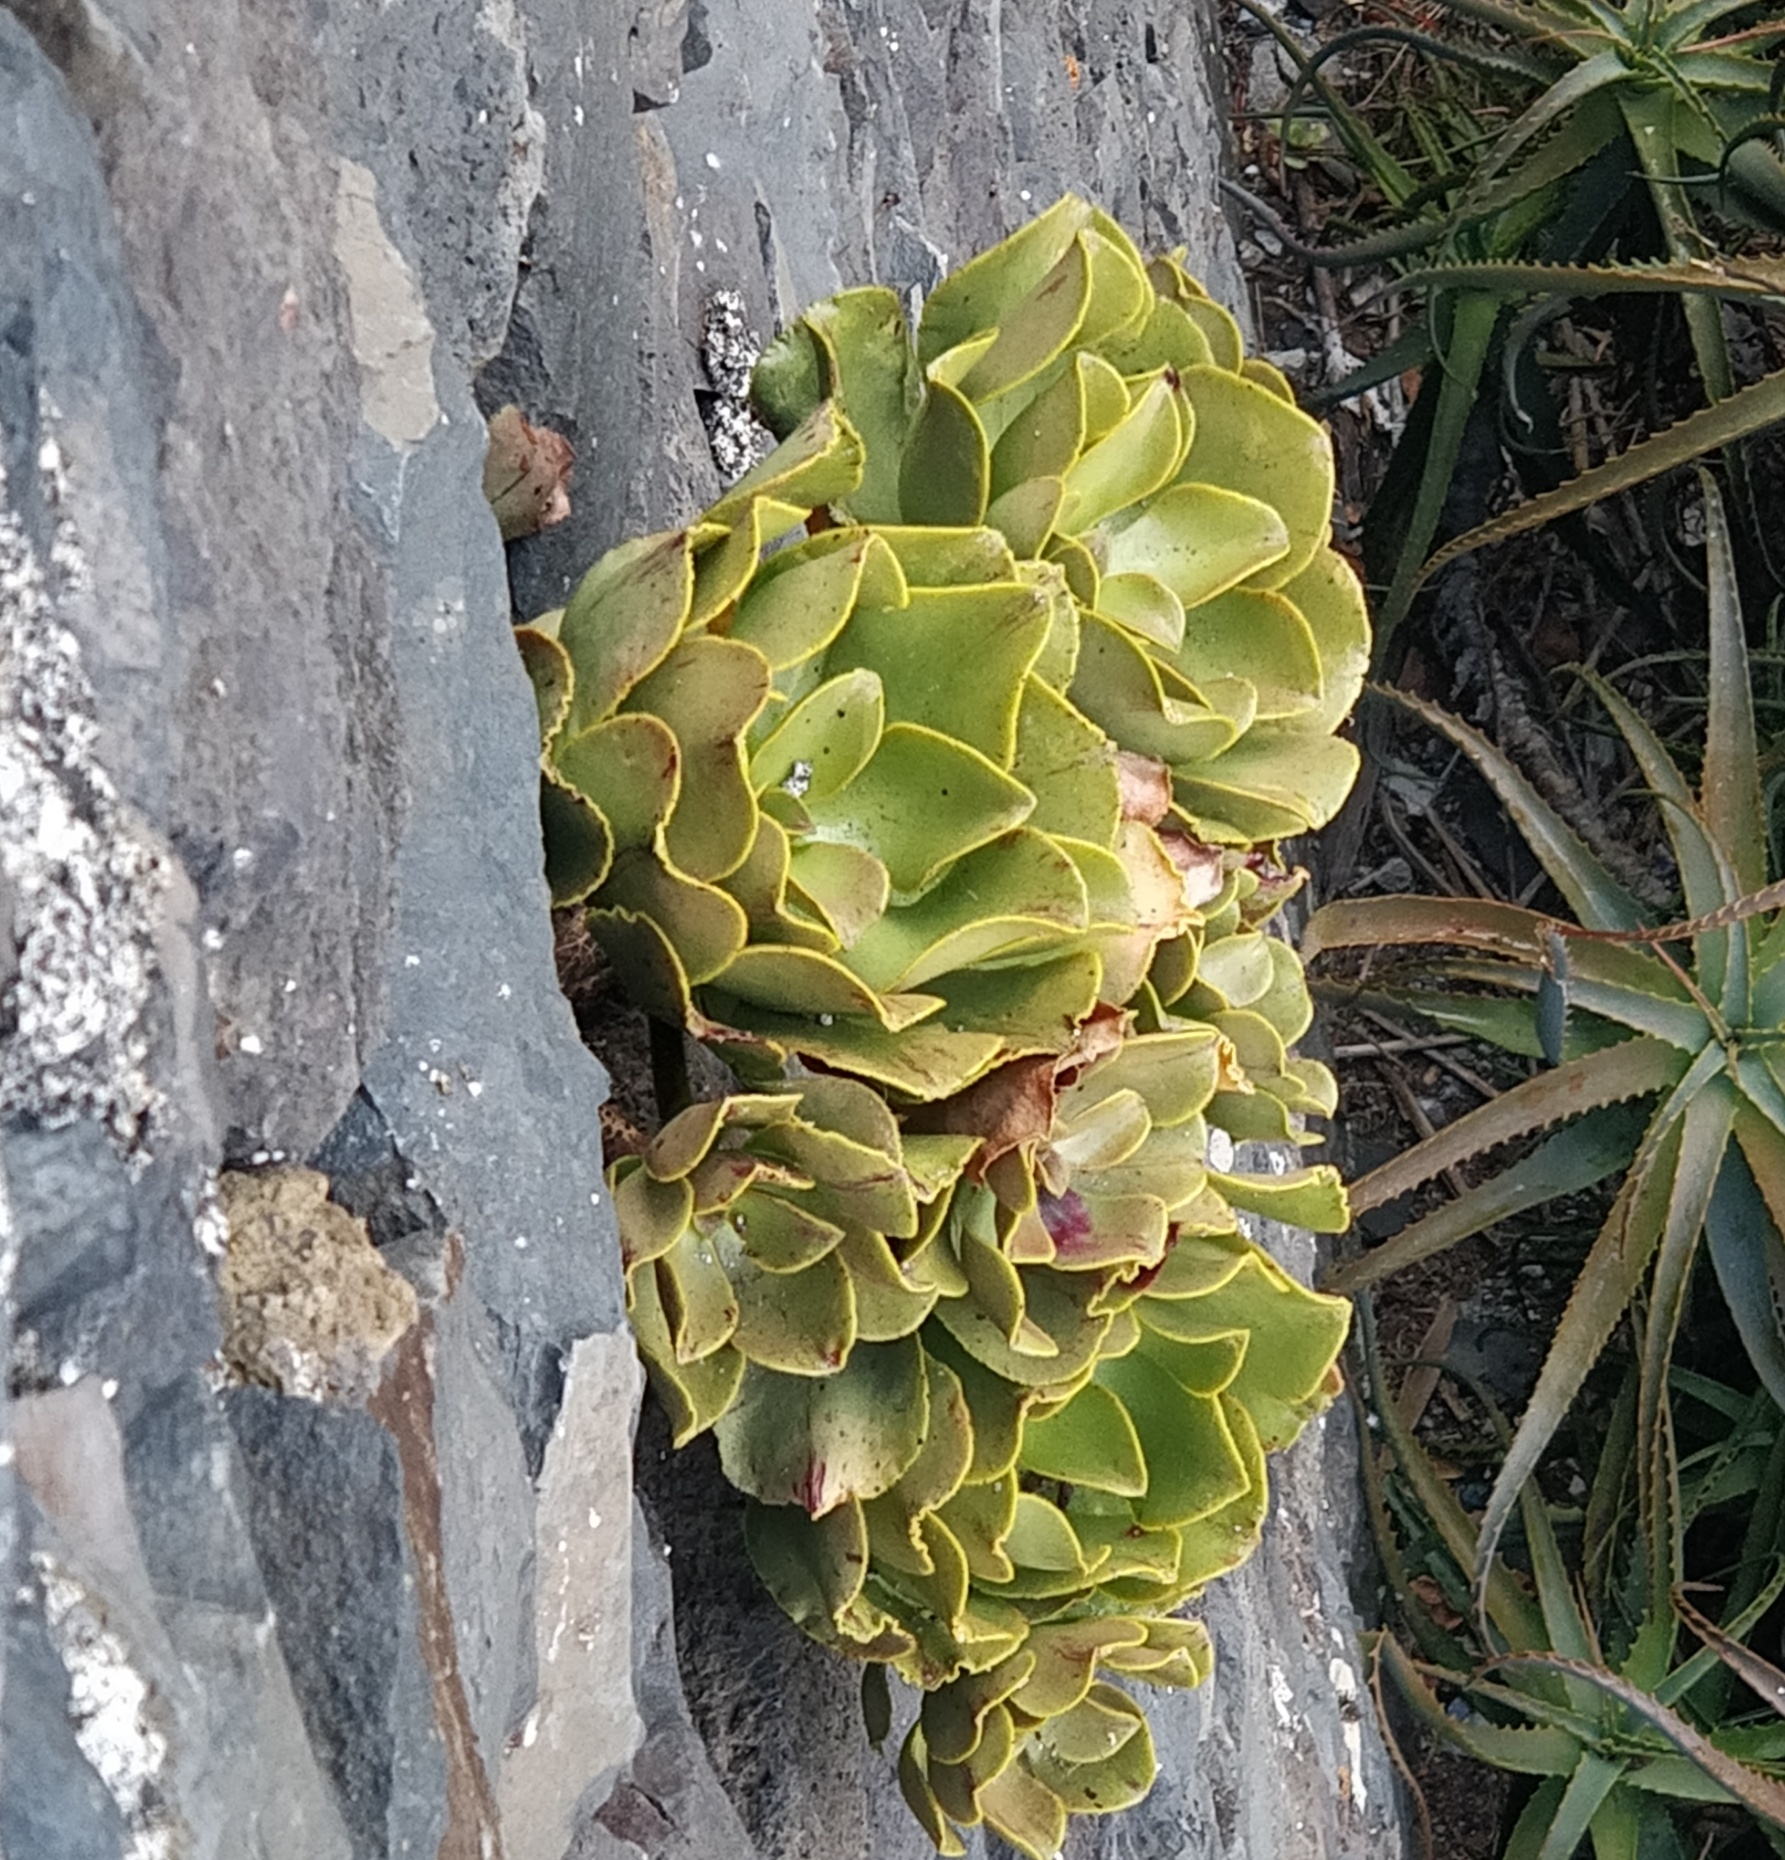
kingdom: Plantae
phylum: Tracheophyta
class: Magnoliopsida
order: Saxifragales
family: Crassulaceae
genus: Aeonium
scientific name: Aeonium glutinosum
